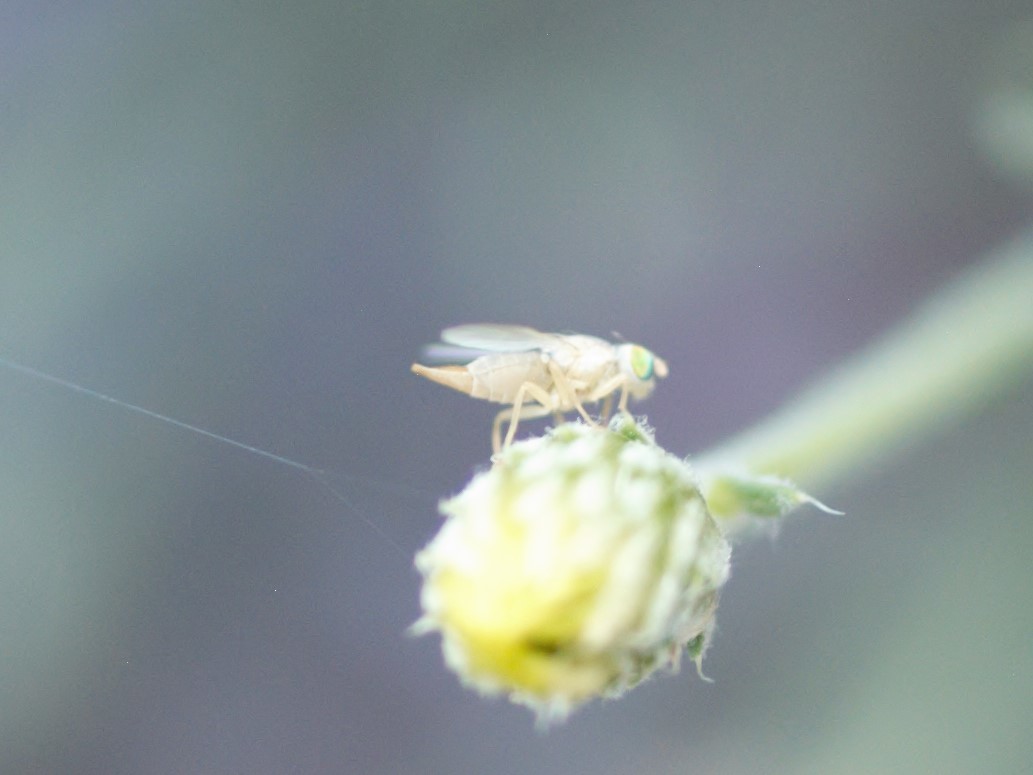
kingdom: Animalia
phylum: Arthropoda
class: Insecta
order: Diptera
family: Tephritidae
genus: Neaspilota
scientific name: Neaspilota
